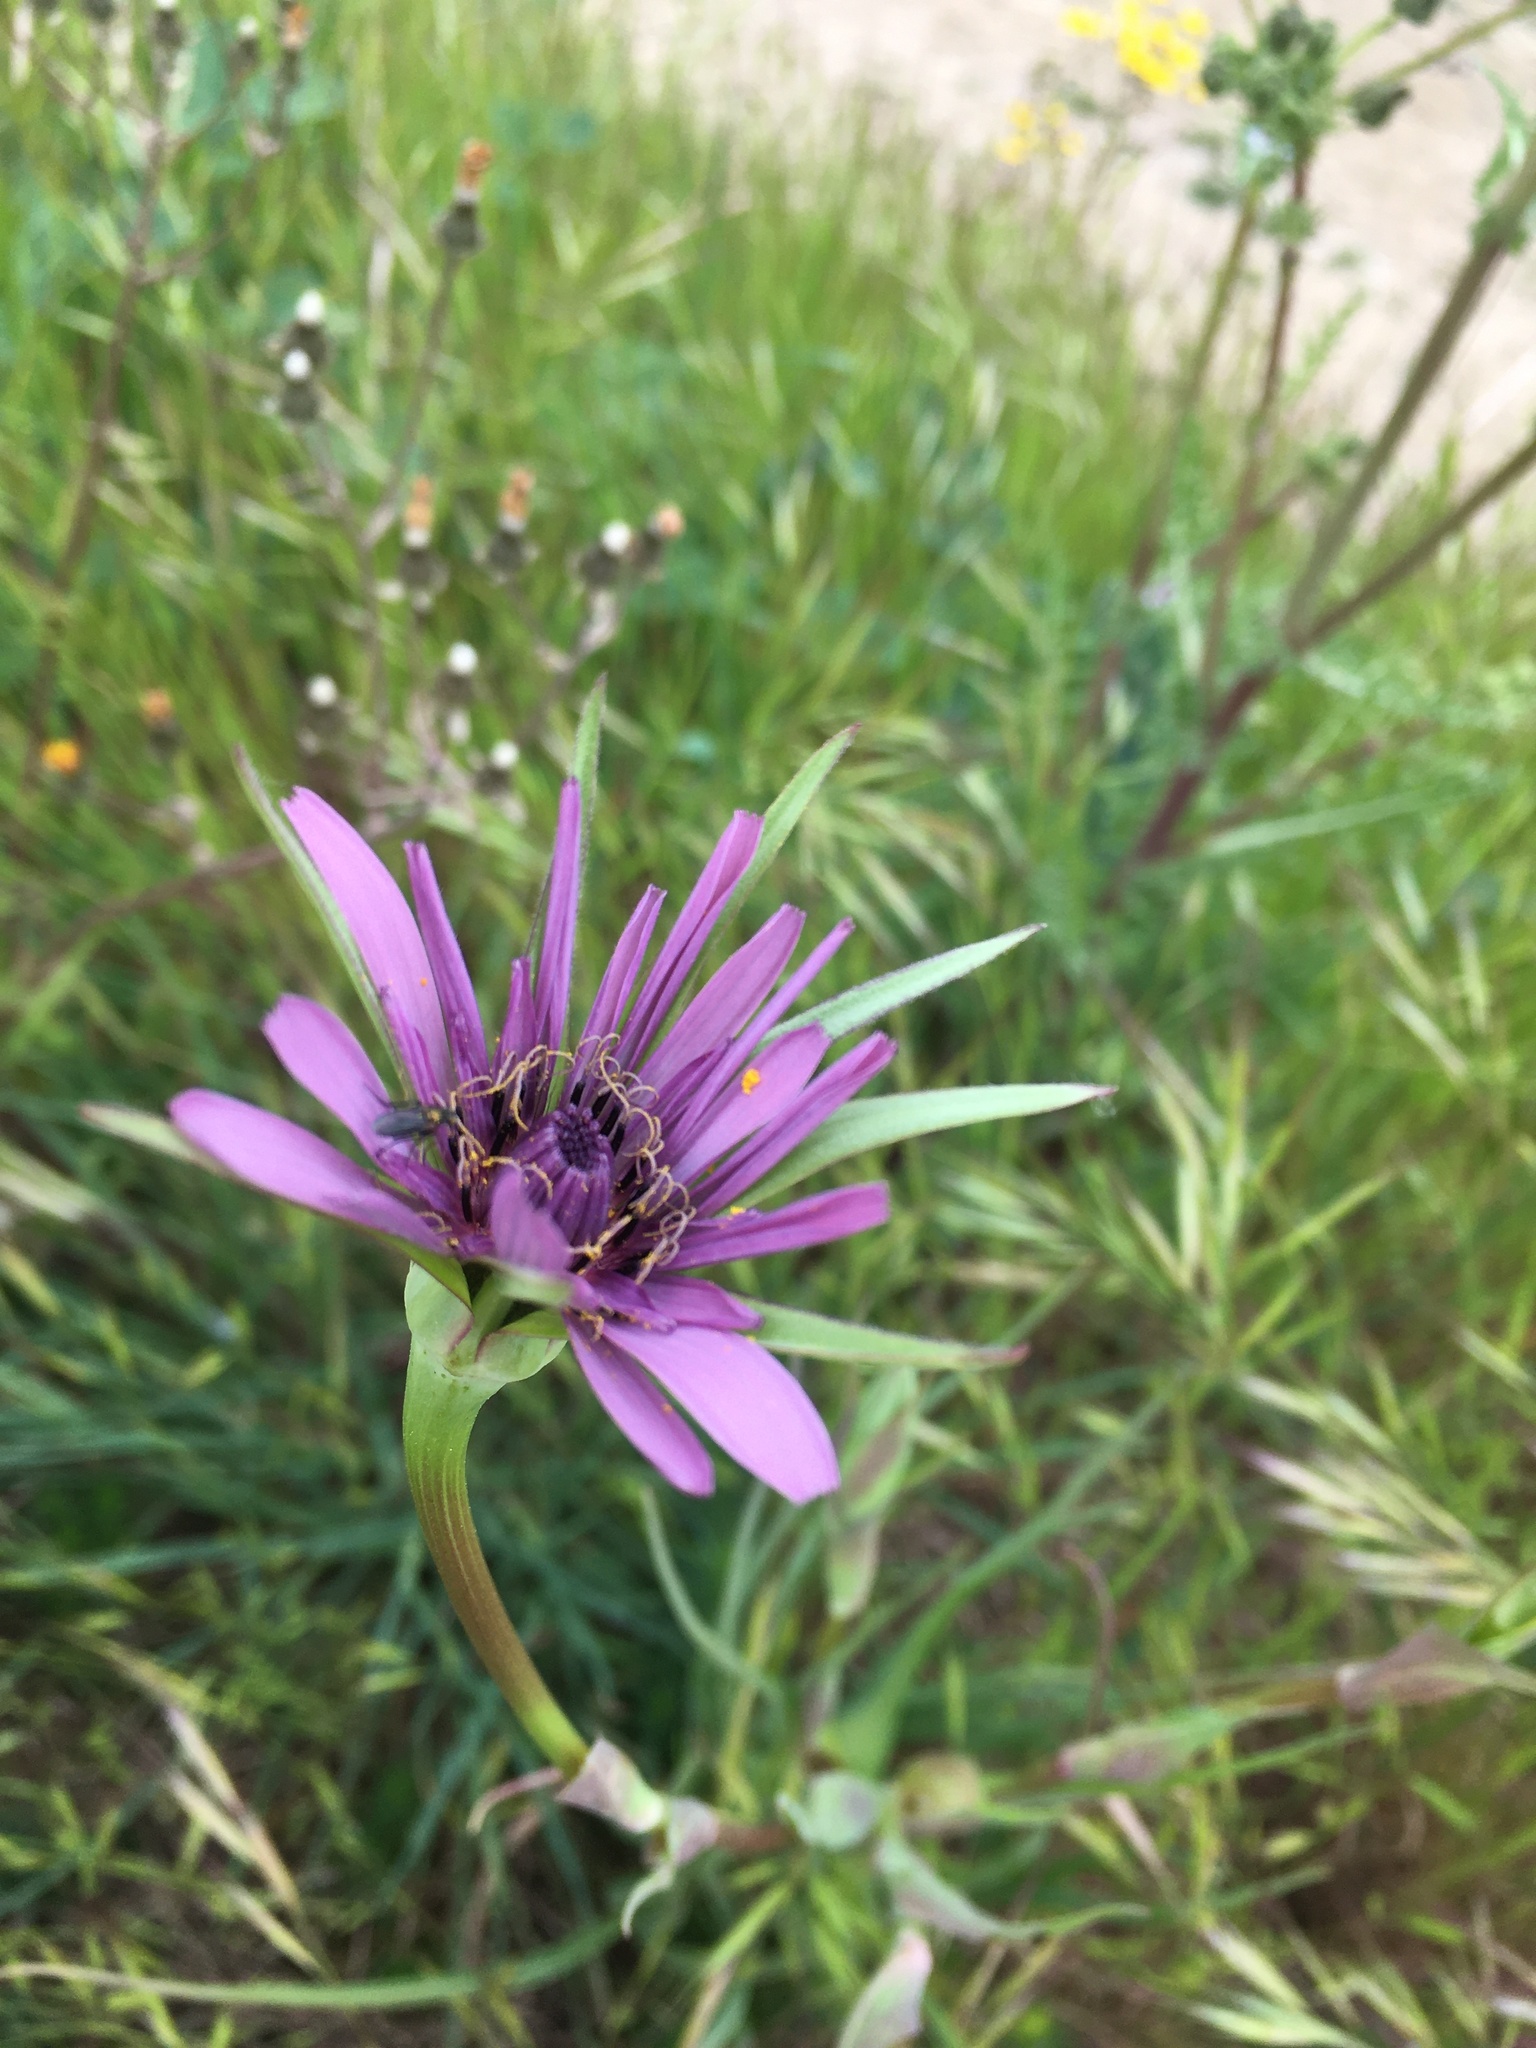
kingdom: Plantae
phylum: Tracheophyta
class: Magnoliopsida
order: Asterales
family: Asteraceae
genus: Tragopogon
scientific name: Tragopogon porrifolius
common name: Salsify
